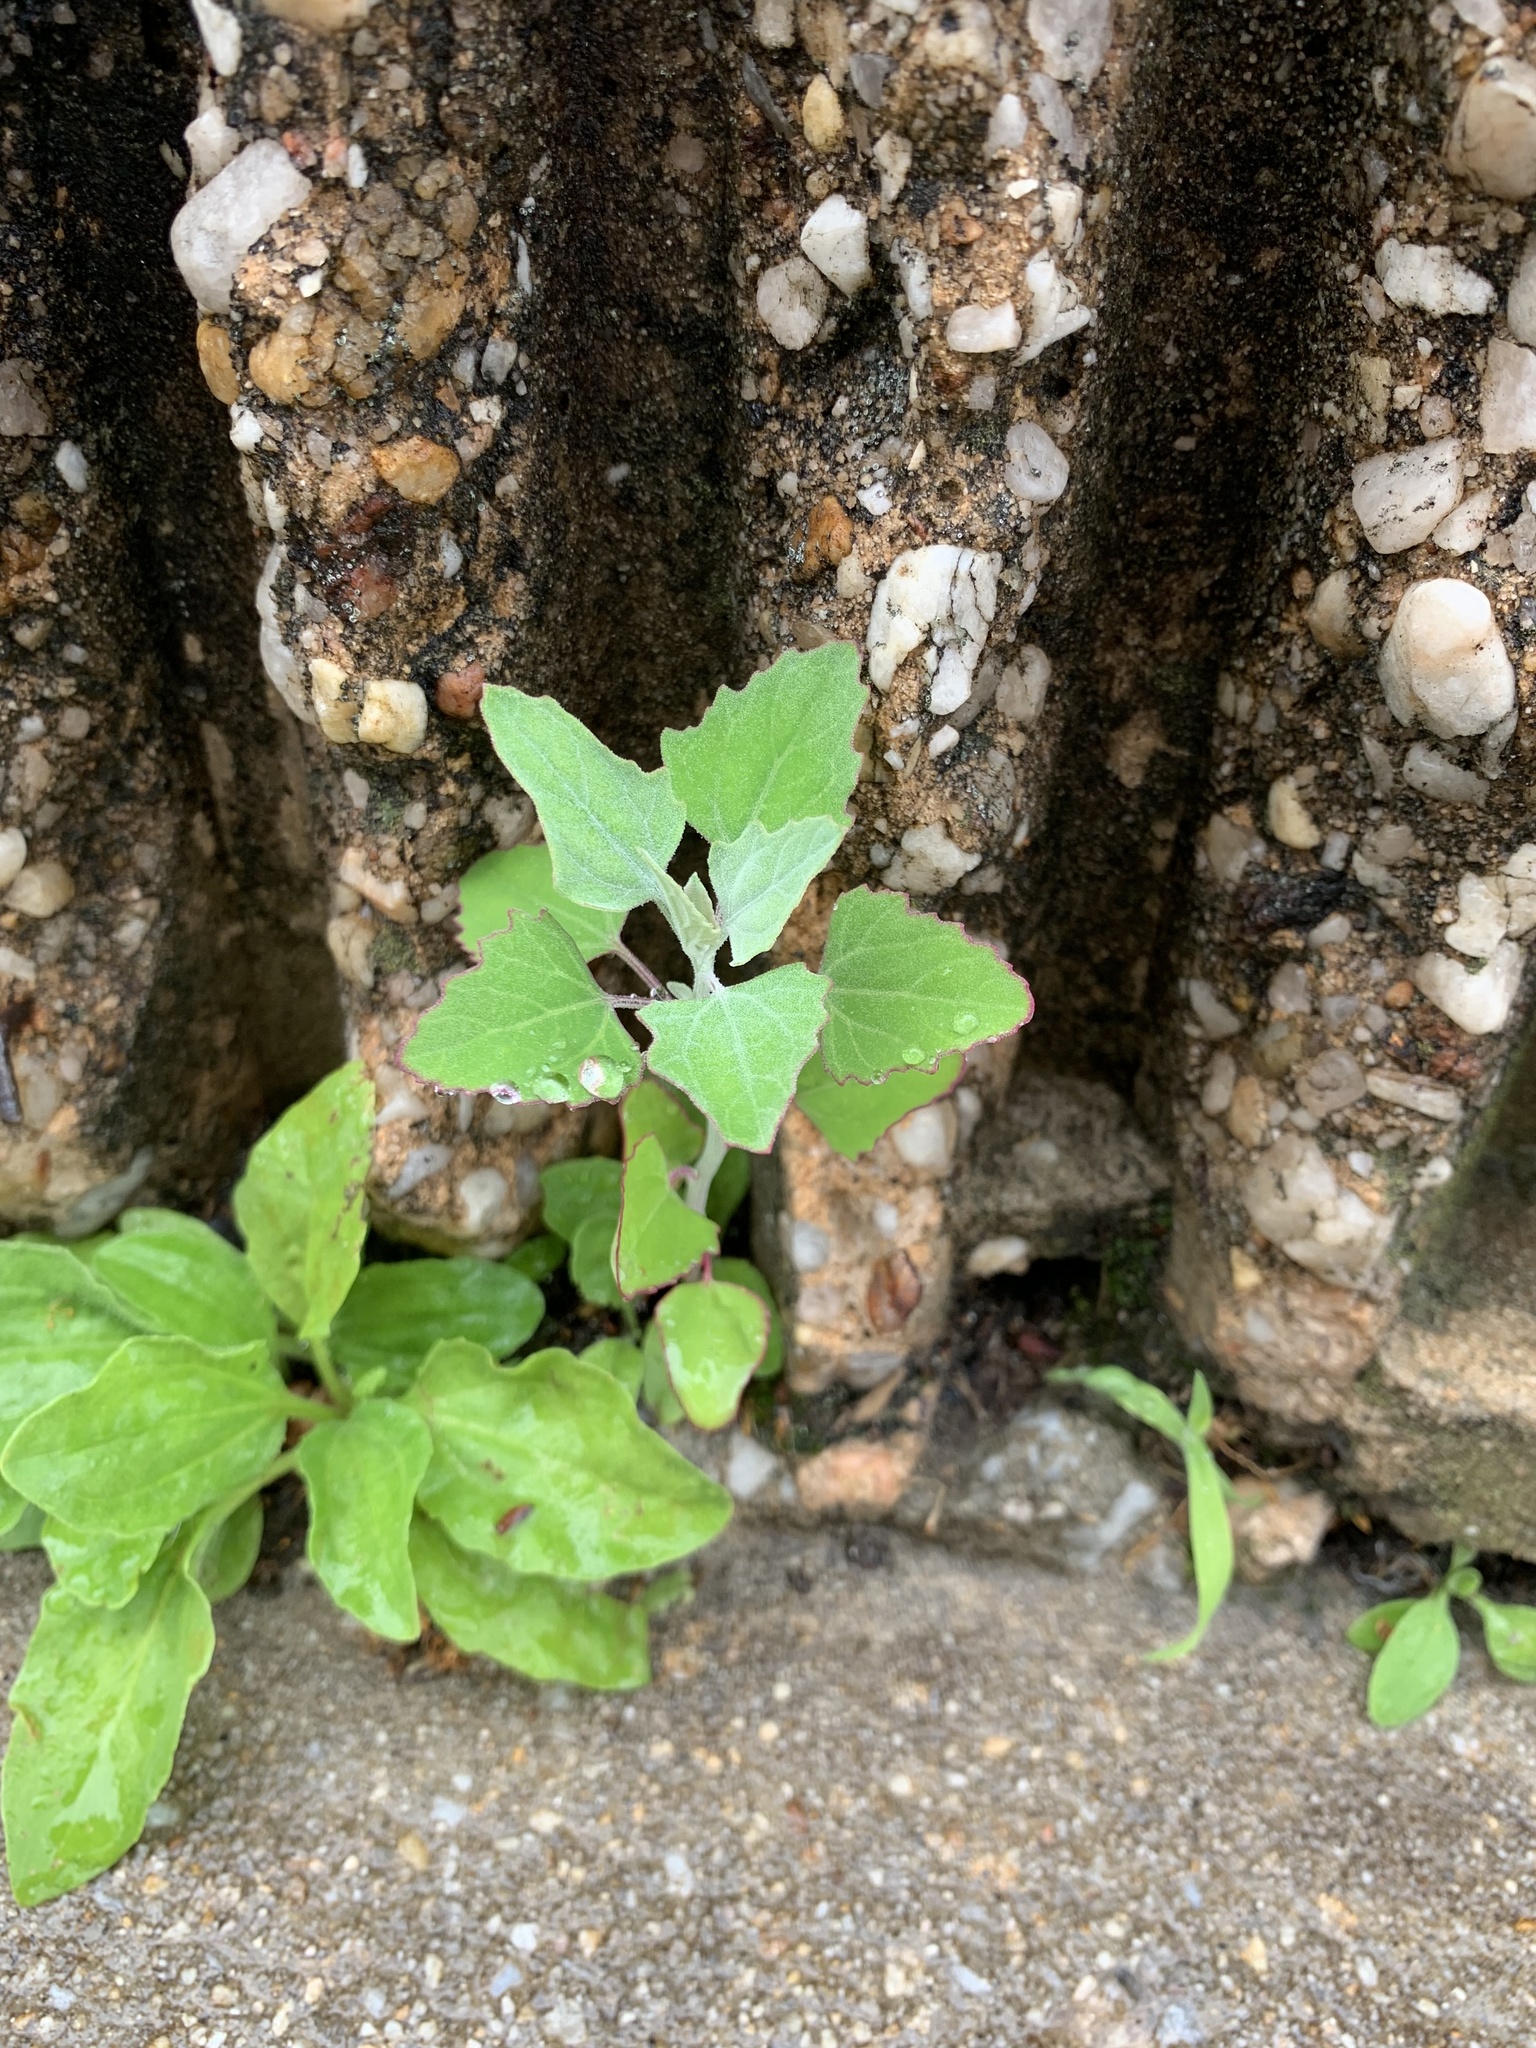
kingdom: Plantae
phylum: Tracheophyta
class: Magnoliopsida
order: Caryophyllales
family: Amaranthaceae
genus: Chenopodium
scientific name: Chenopodium album
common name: Fat-hen
